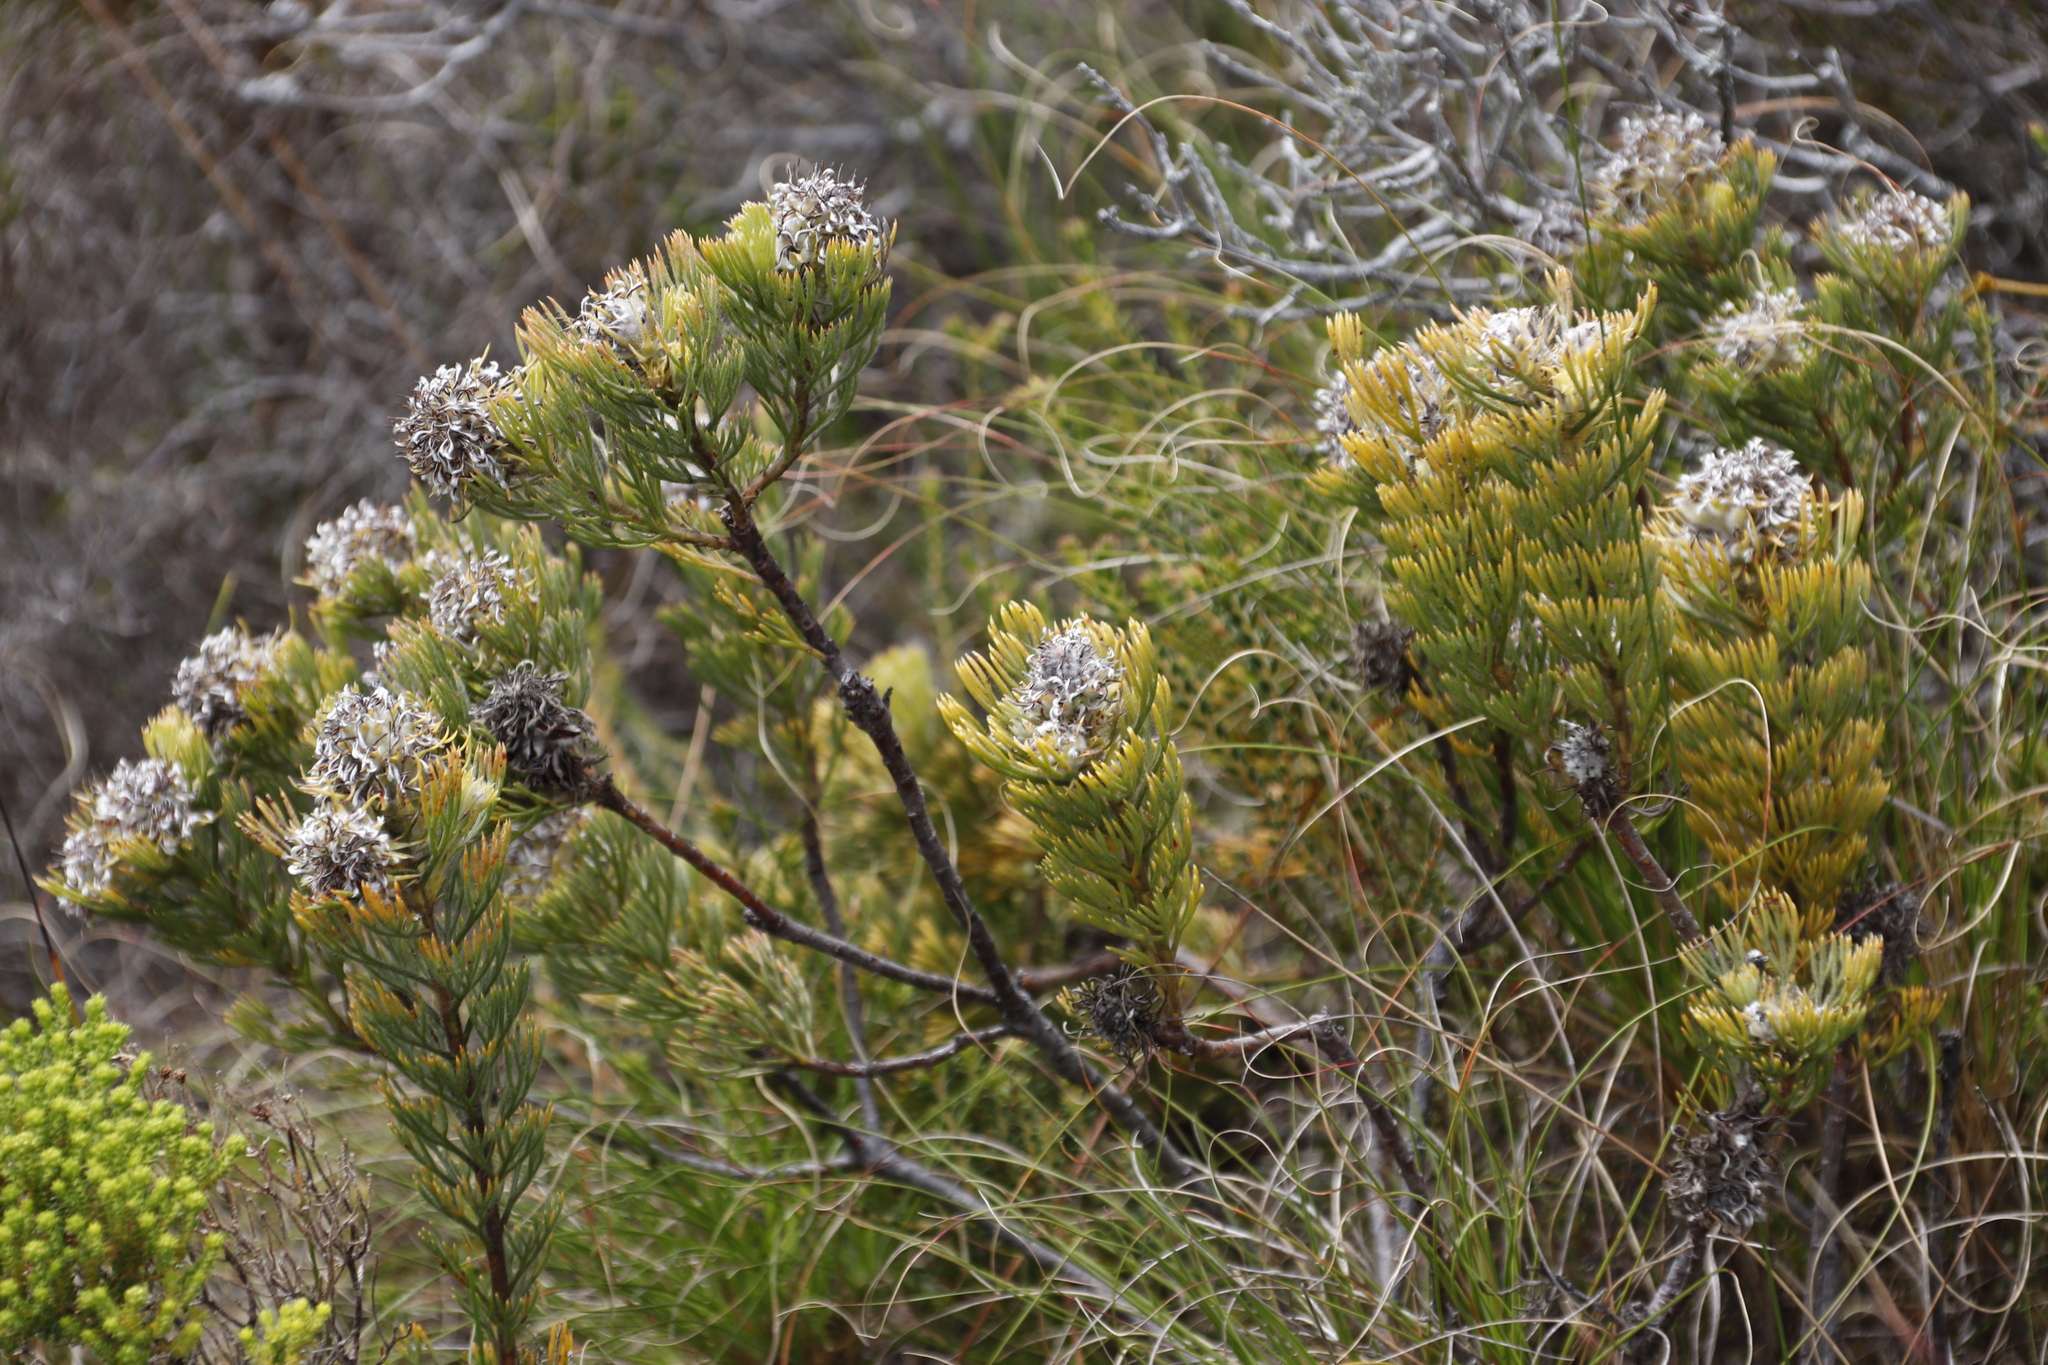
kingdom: Plantae
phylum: Tracheophyta
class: Magnoliopsida
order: Proteales
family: Proteaceae
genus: Serruria
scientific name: Serruria villosa
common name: Golden spiderhead
